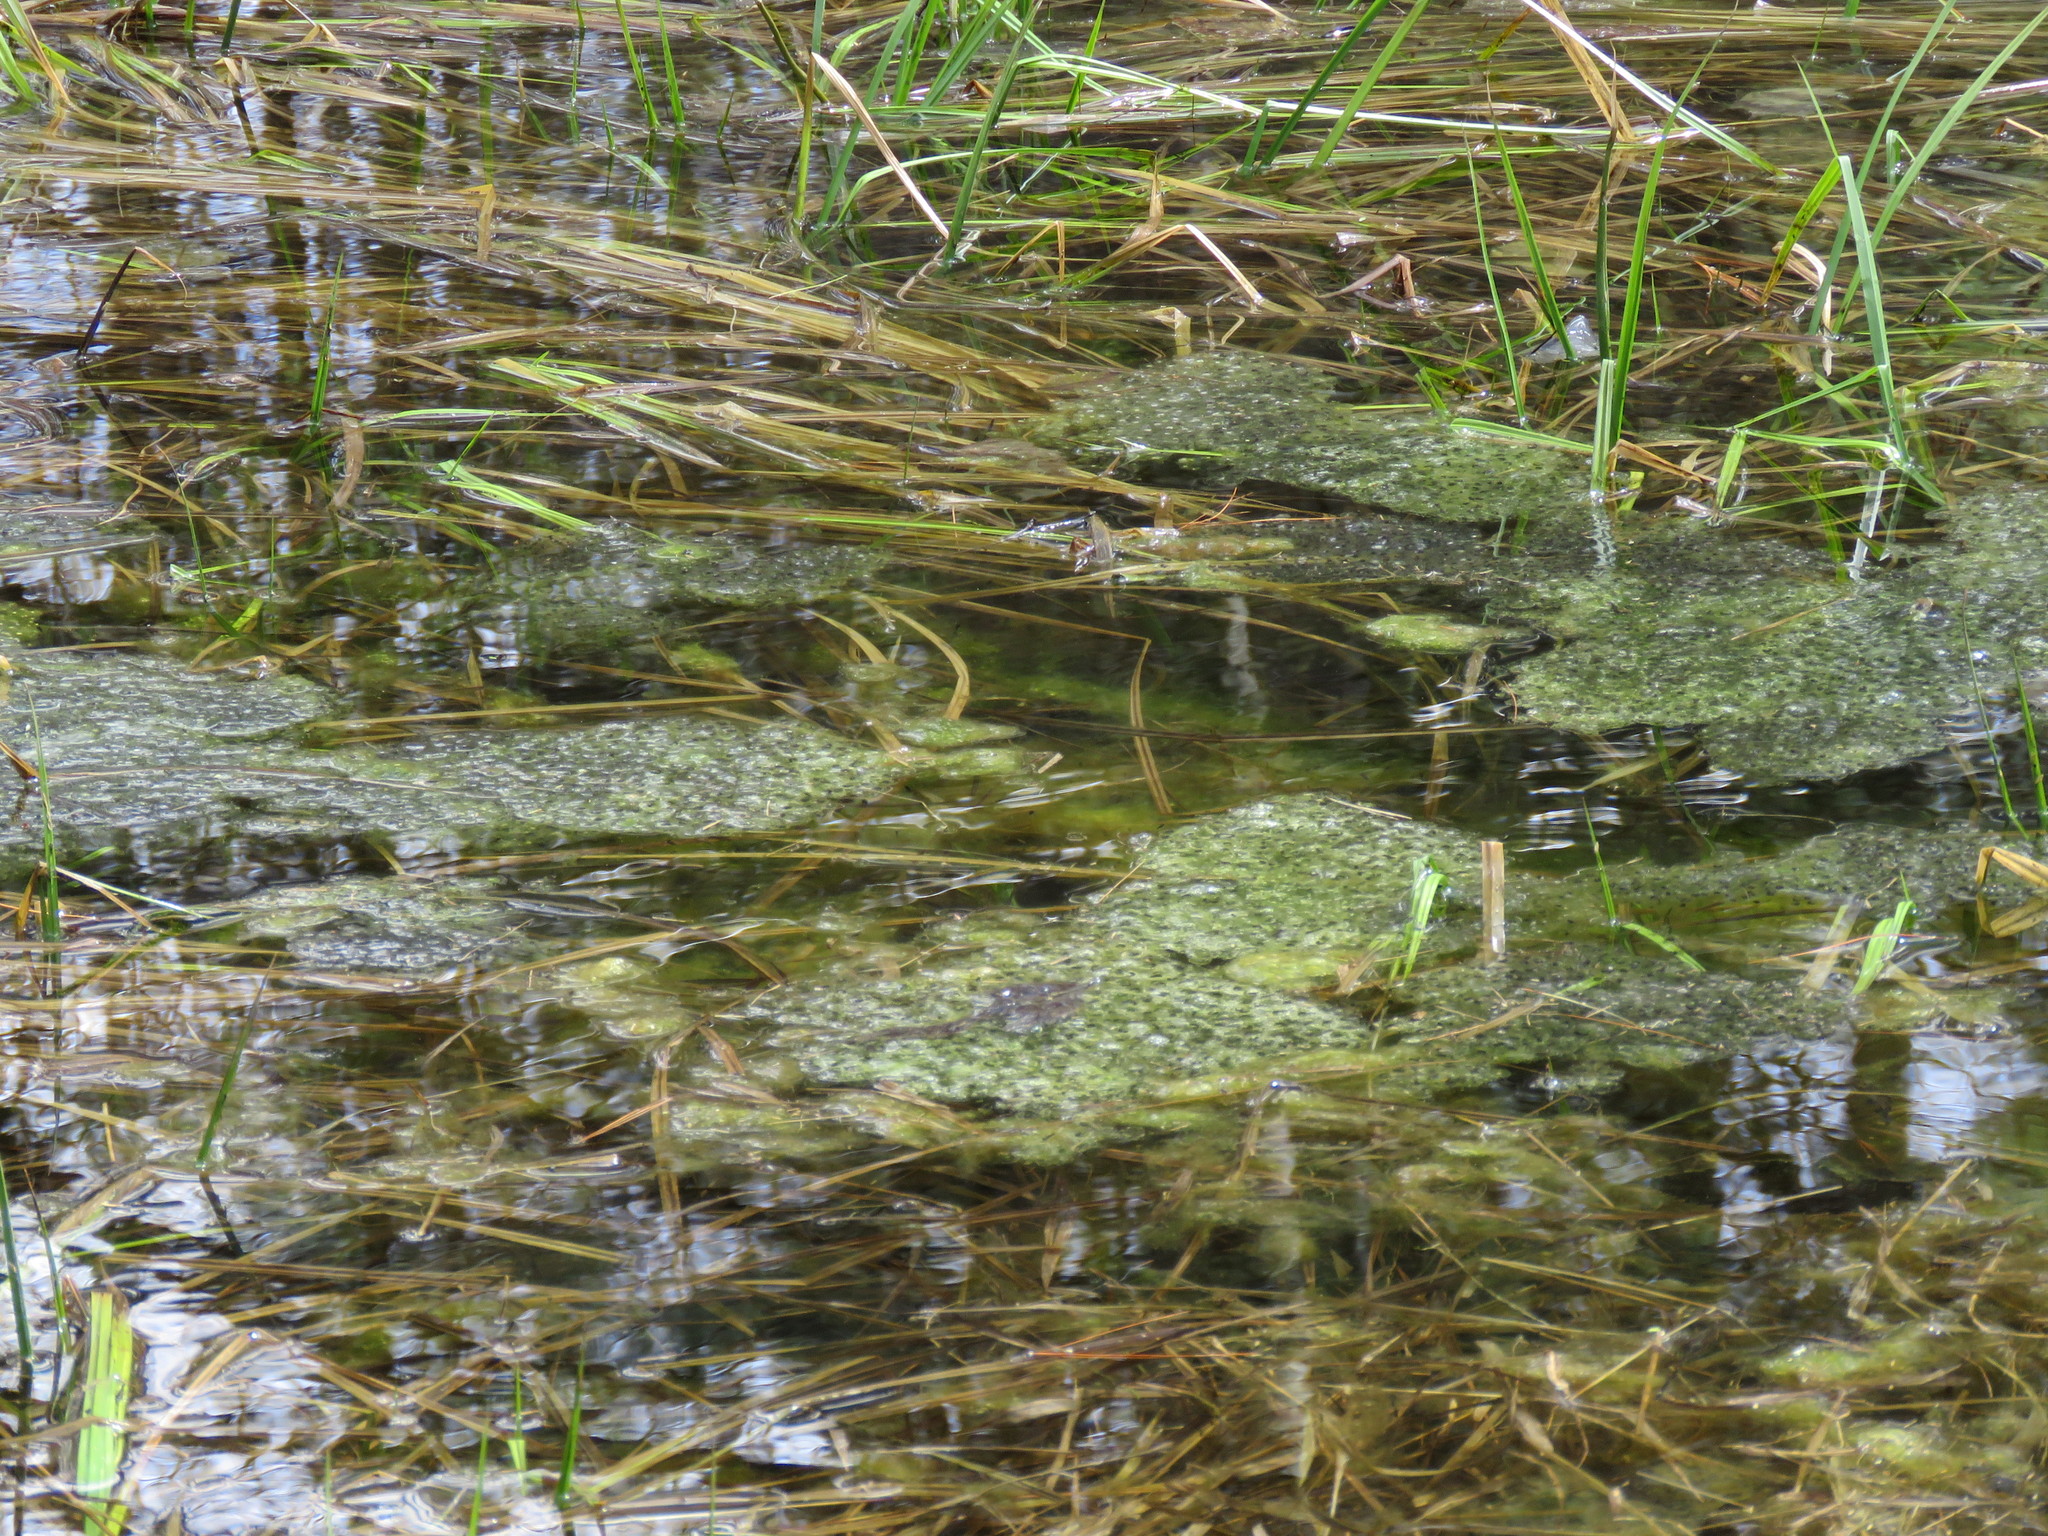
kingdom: Animalia
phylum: Chordata
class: Amphibia
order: Anura
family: Ranidae
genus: Lithobates
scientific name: Lithobates sylvaticus
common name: Wood frog
